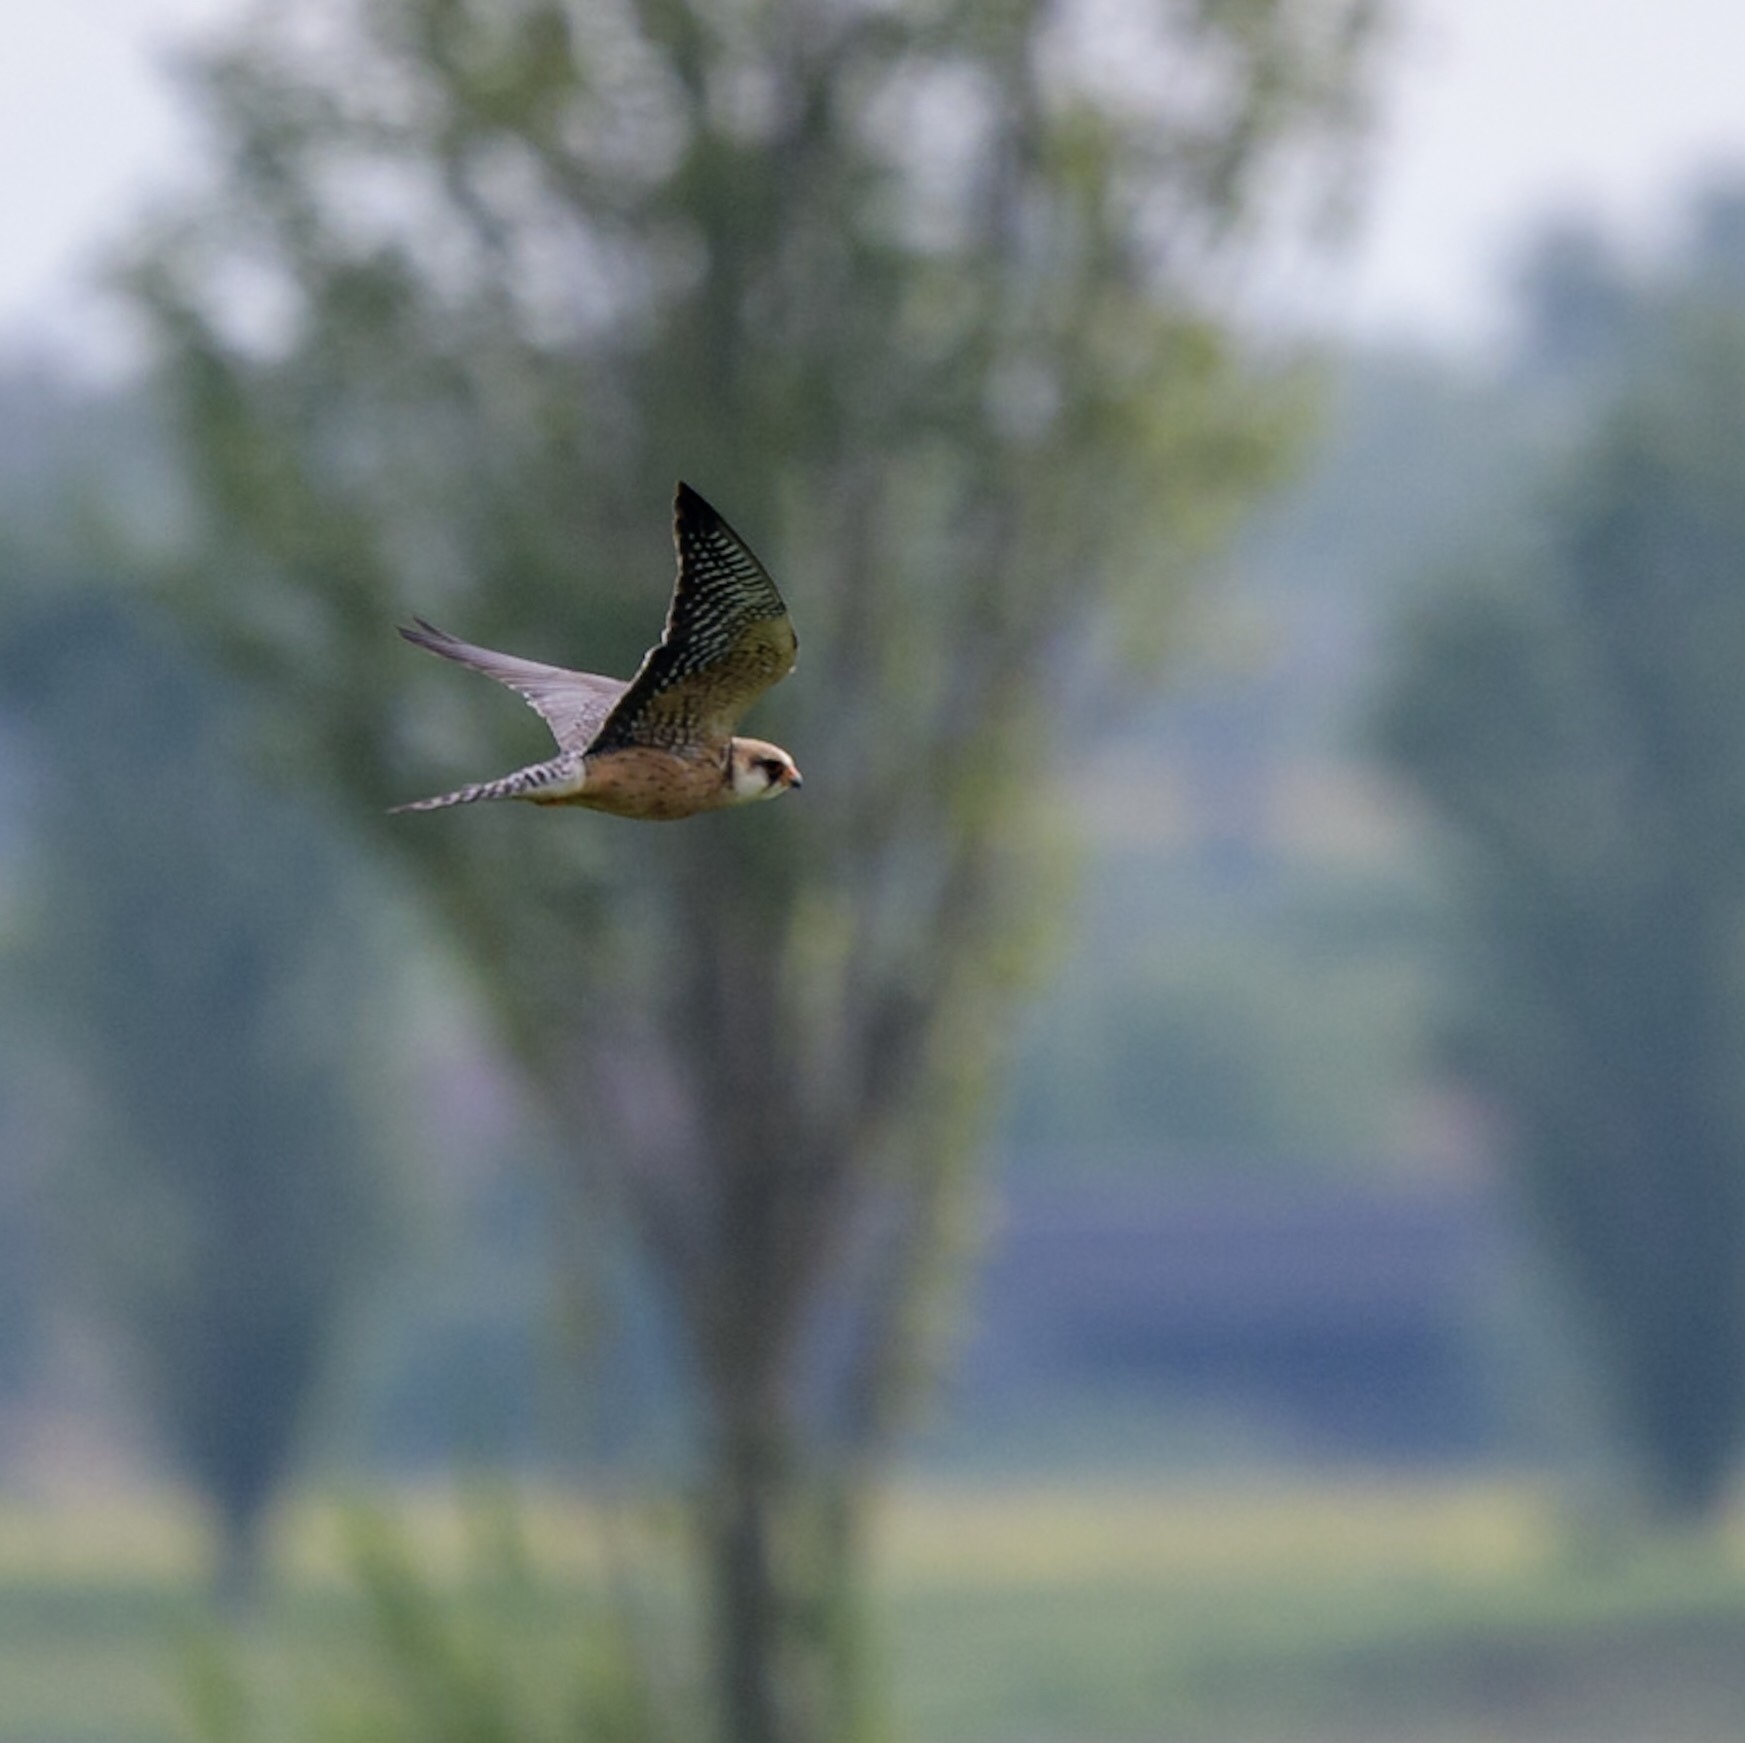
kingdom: Animalia
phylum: Chordata
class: Aves
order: Falconiformes
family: Falconidae
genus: Falco
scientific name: Falco vespertinus
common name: Red-footed falcon
